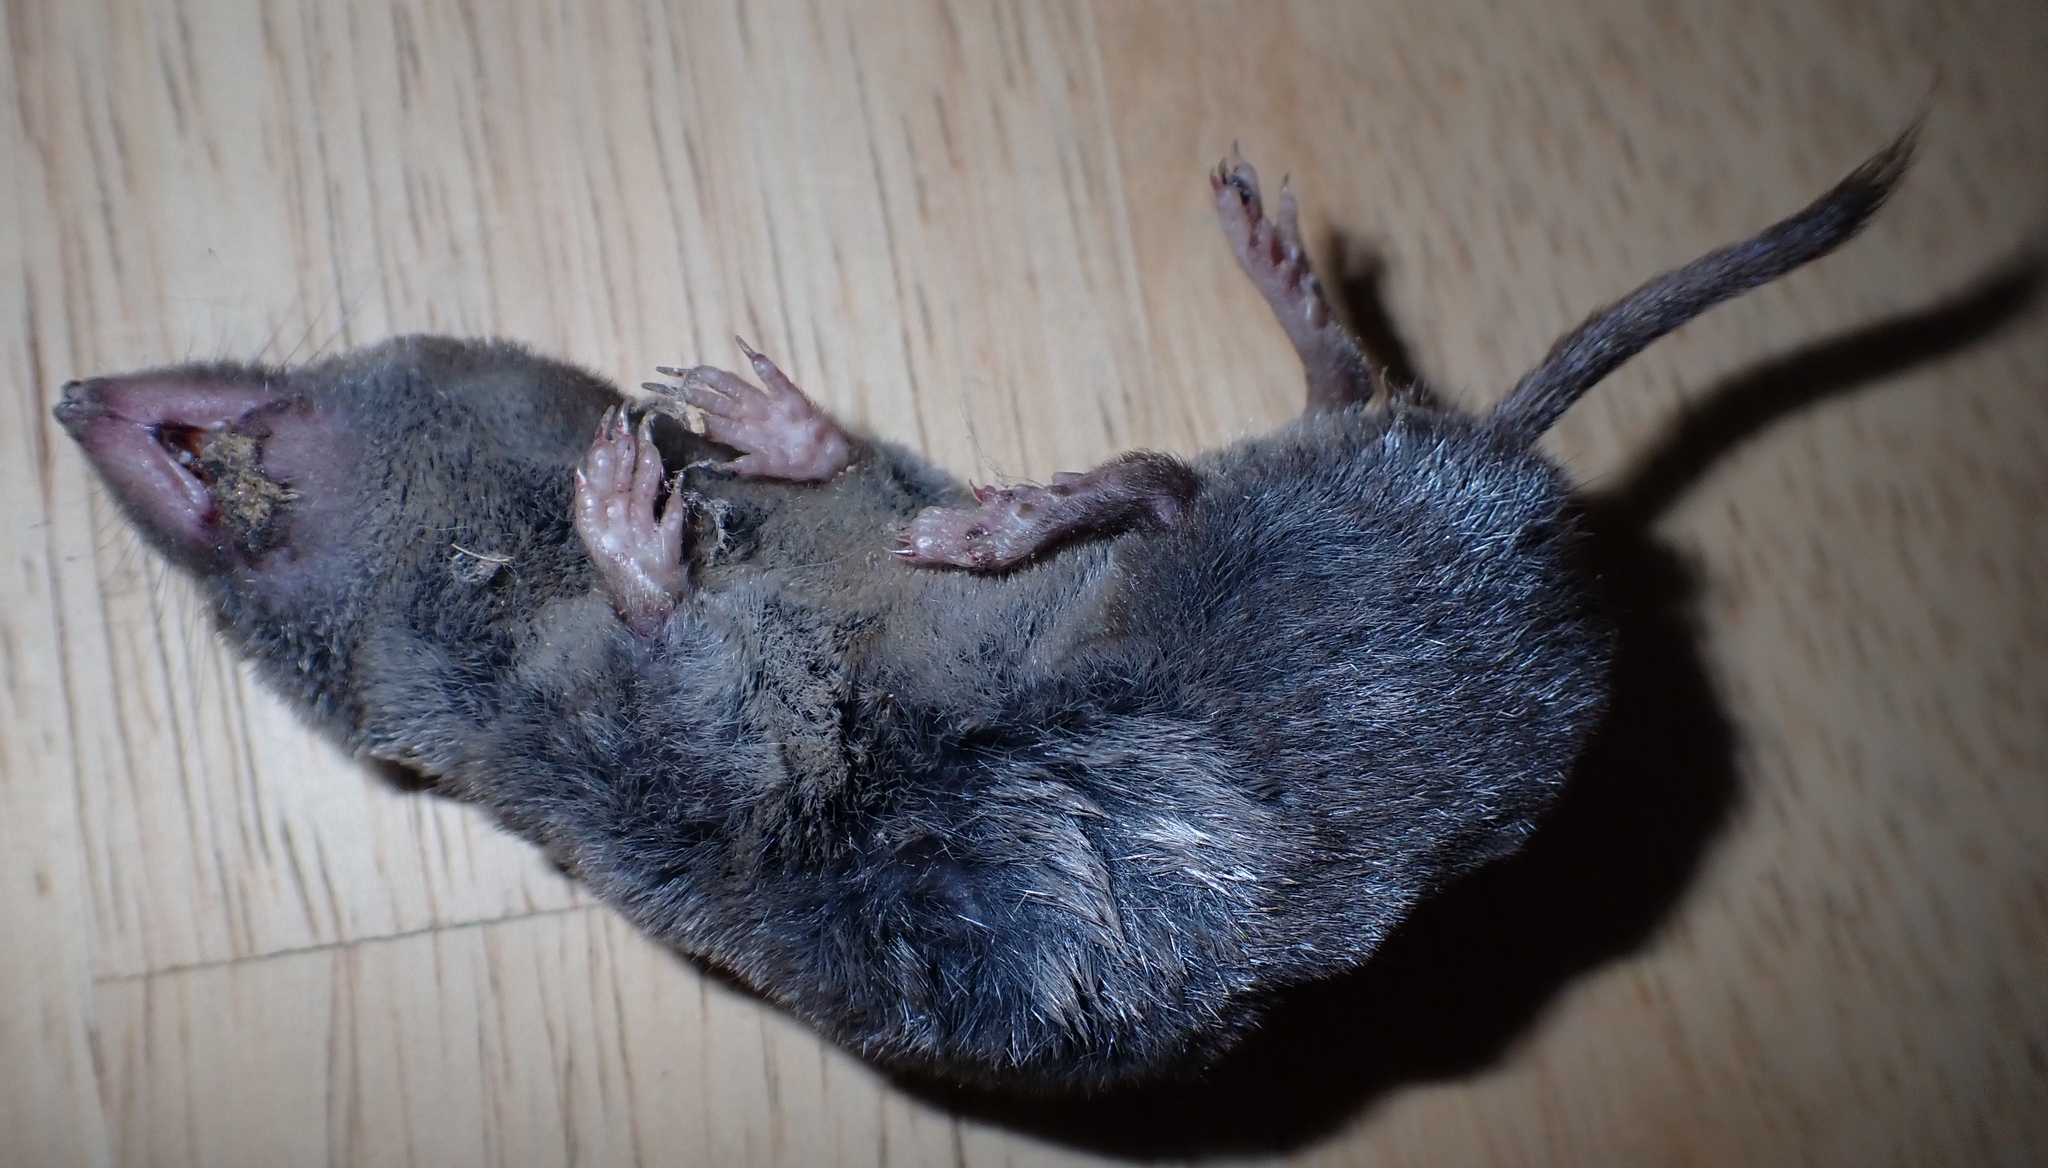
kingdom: Animalia
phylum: Chordata
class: Mammalia
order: Soricomorpha
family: Soricidae
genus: Blarina
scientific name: Blarina brevicauda
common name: Northern short-tailed shrew
